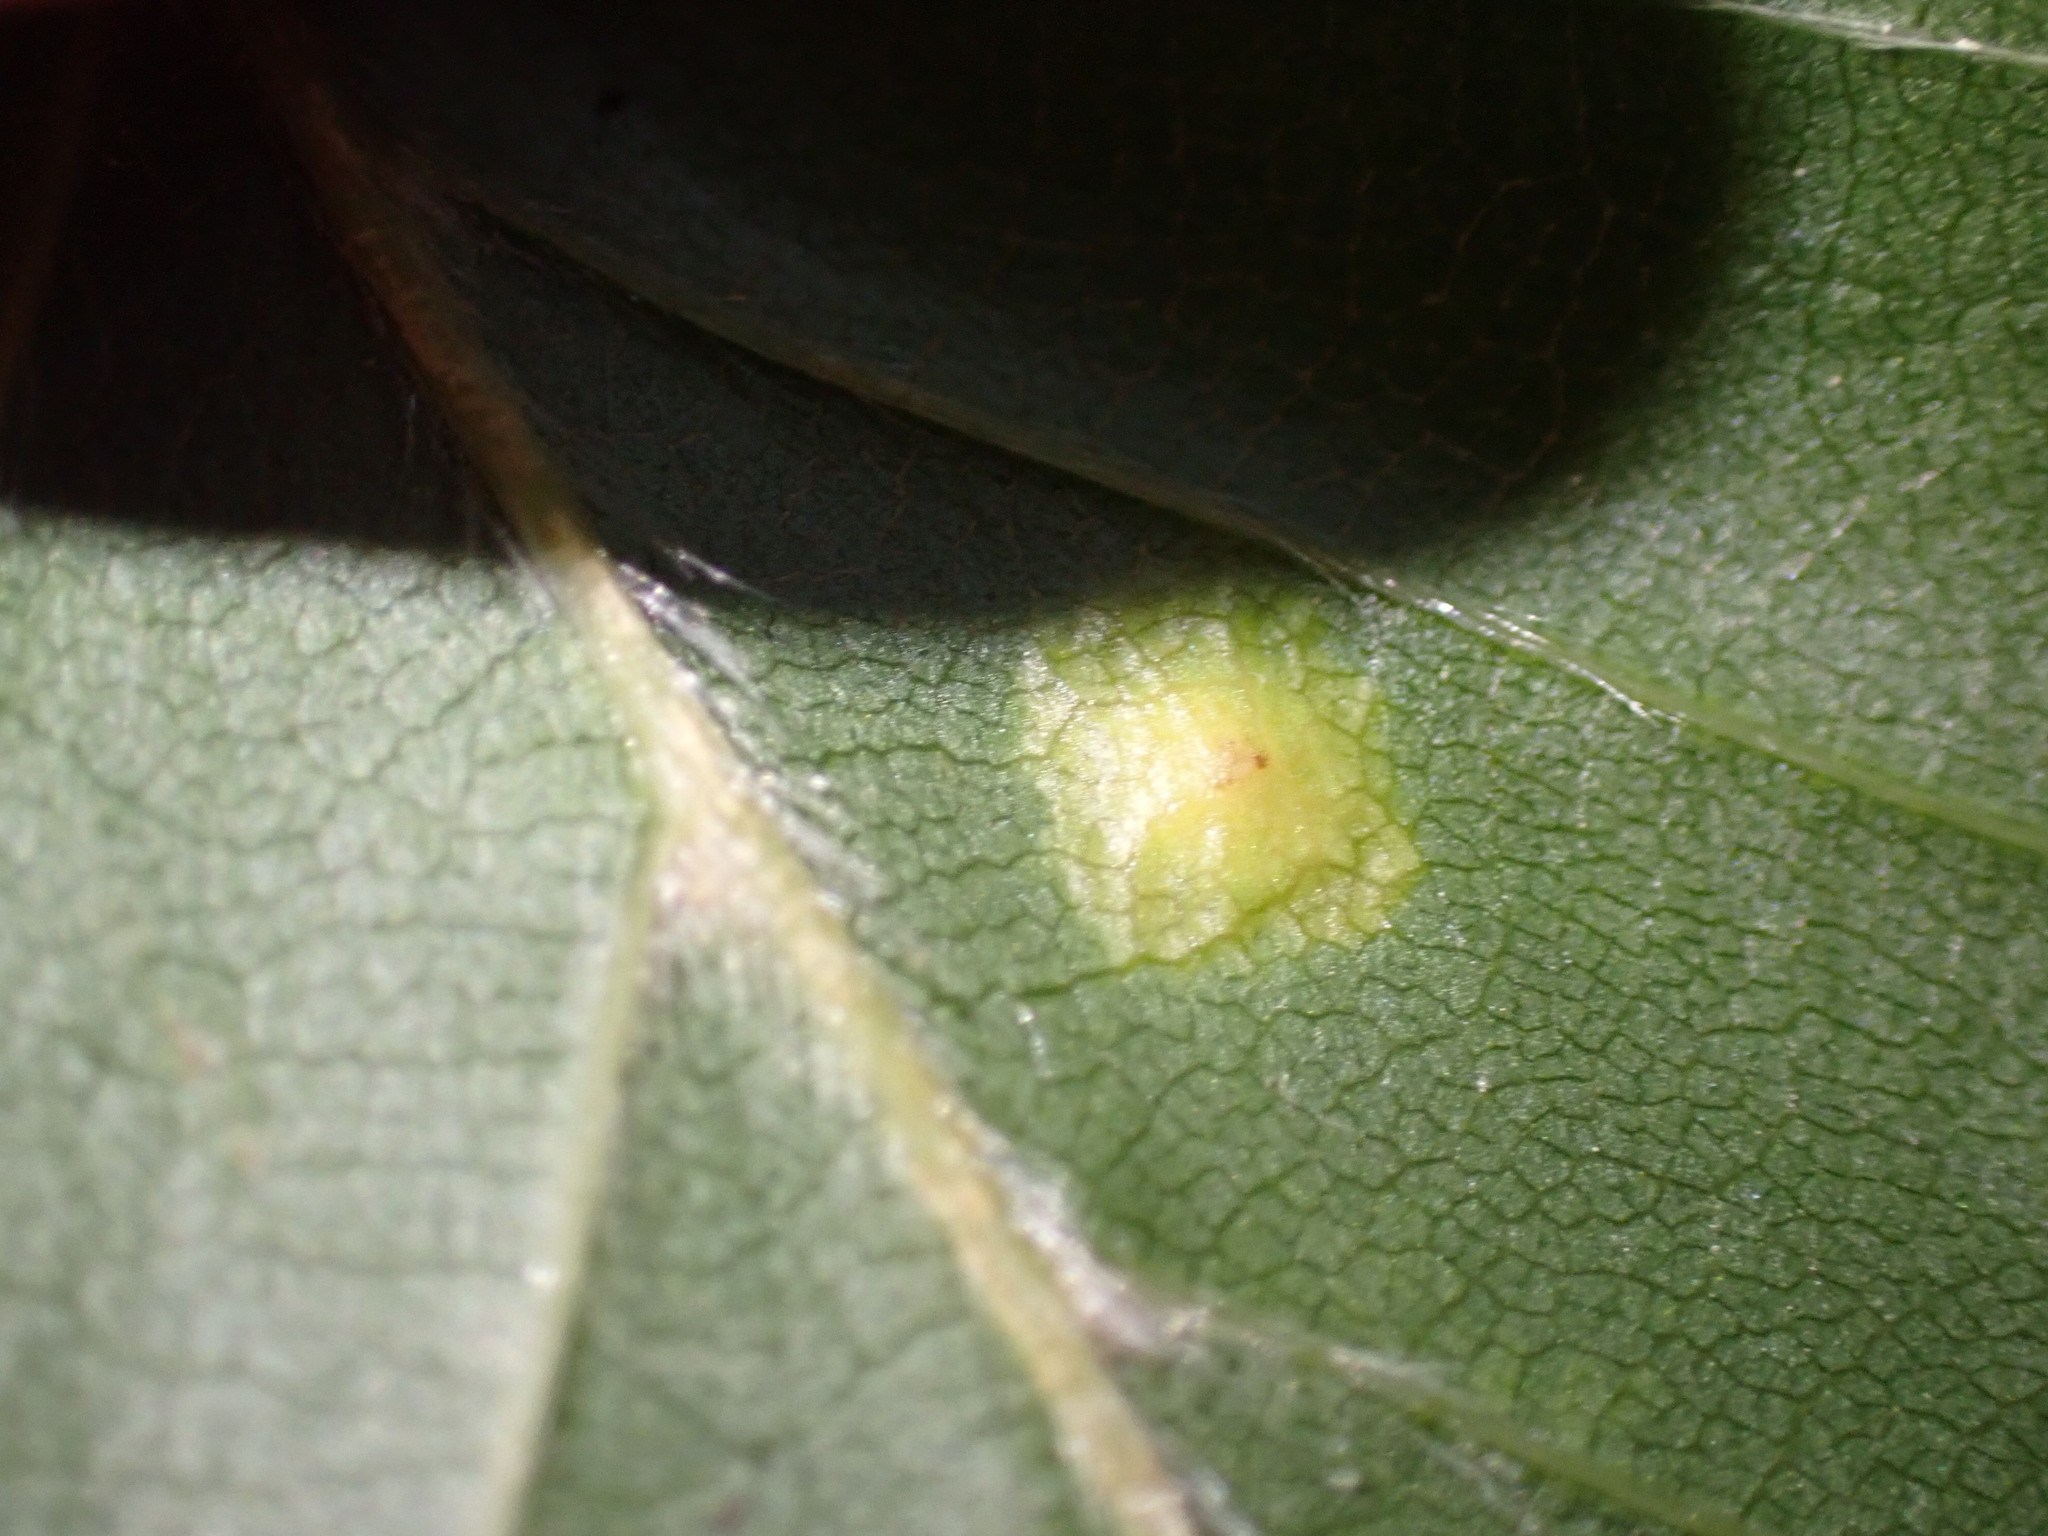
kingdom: Animalia
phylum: Arthropoda
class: Insecta
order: Diptera
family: Cecidomyiidae
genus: Hartigiola
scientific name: Hartigiola annulipes
